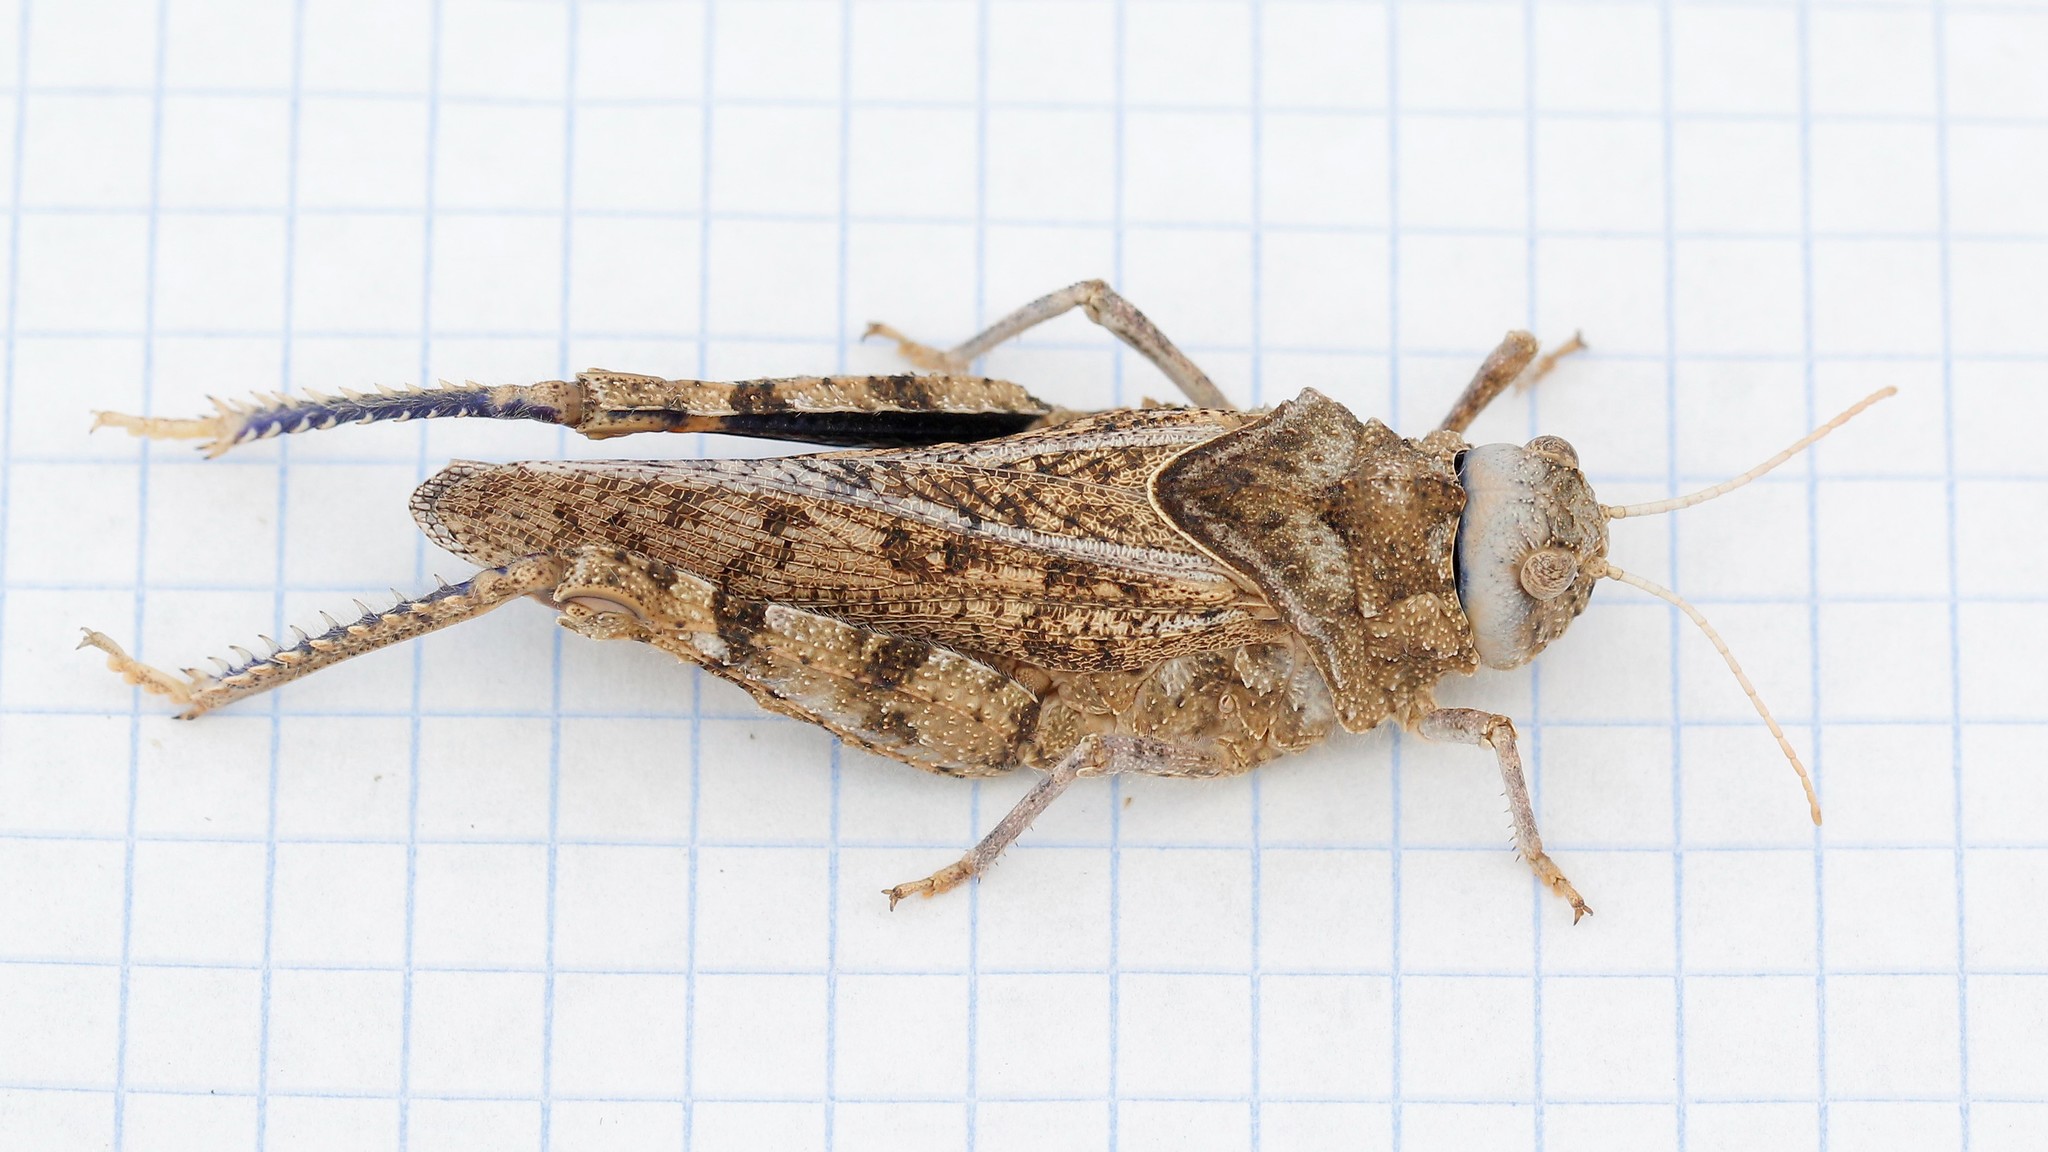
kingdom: Animalia
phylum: Arthropoda
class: Insecta
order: Orthoptera
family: Pamphagidae
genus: Asiotmethis
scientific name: Asiotmethis muricatus
